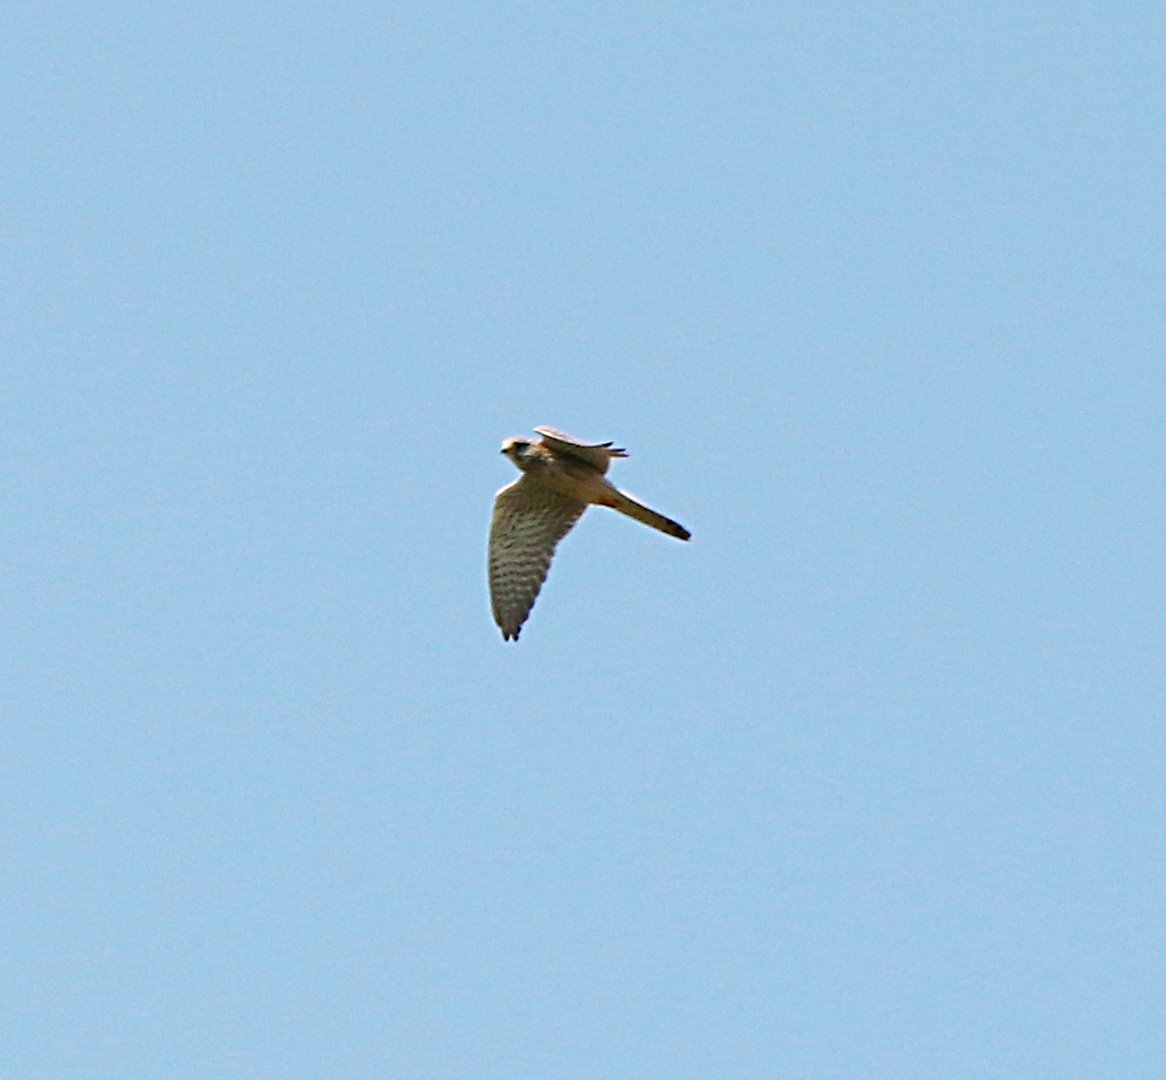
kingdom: Animalia
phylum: Chordata
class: Aves
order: Falconiformes
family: Falconidae
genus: Falco
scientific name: Falco tinnunculus
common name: Common kestrel
